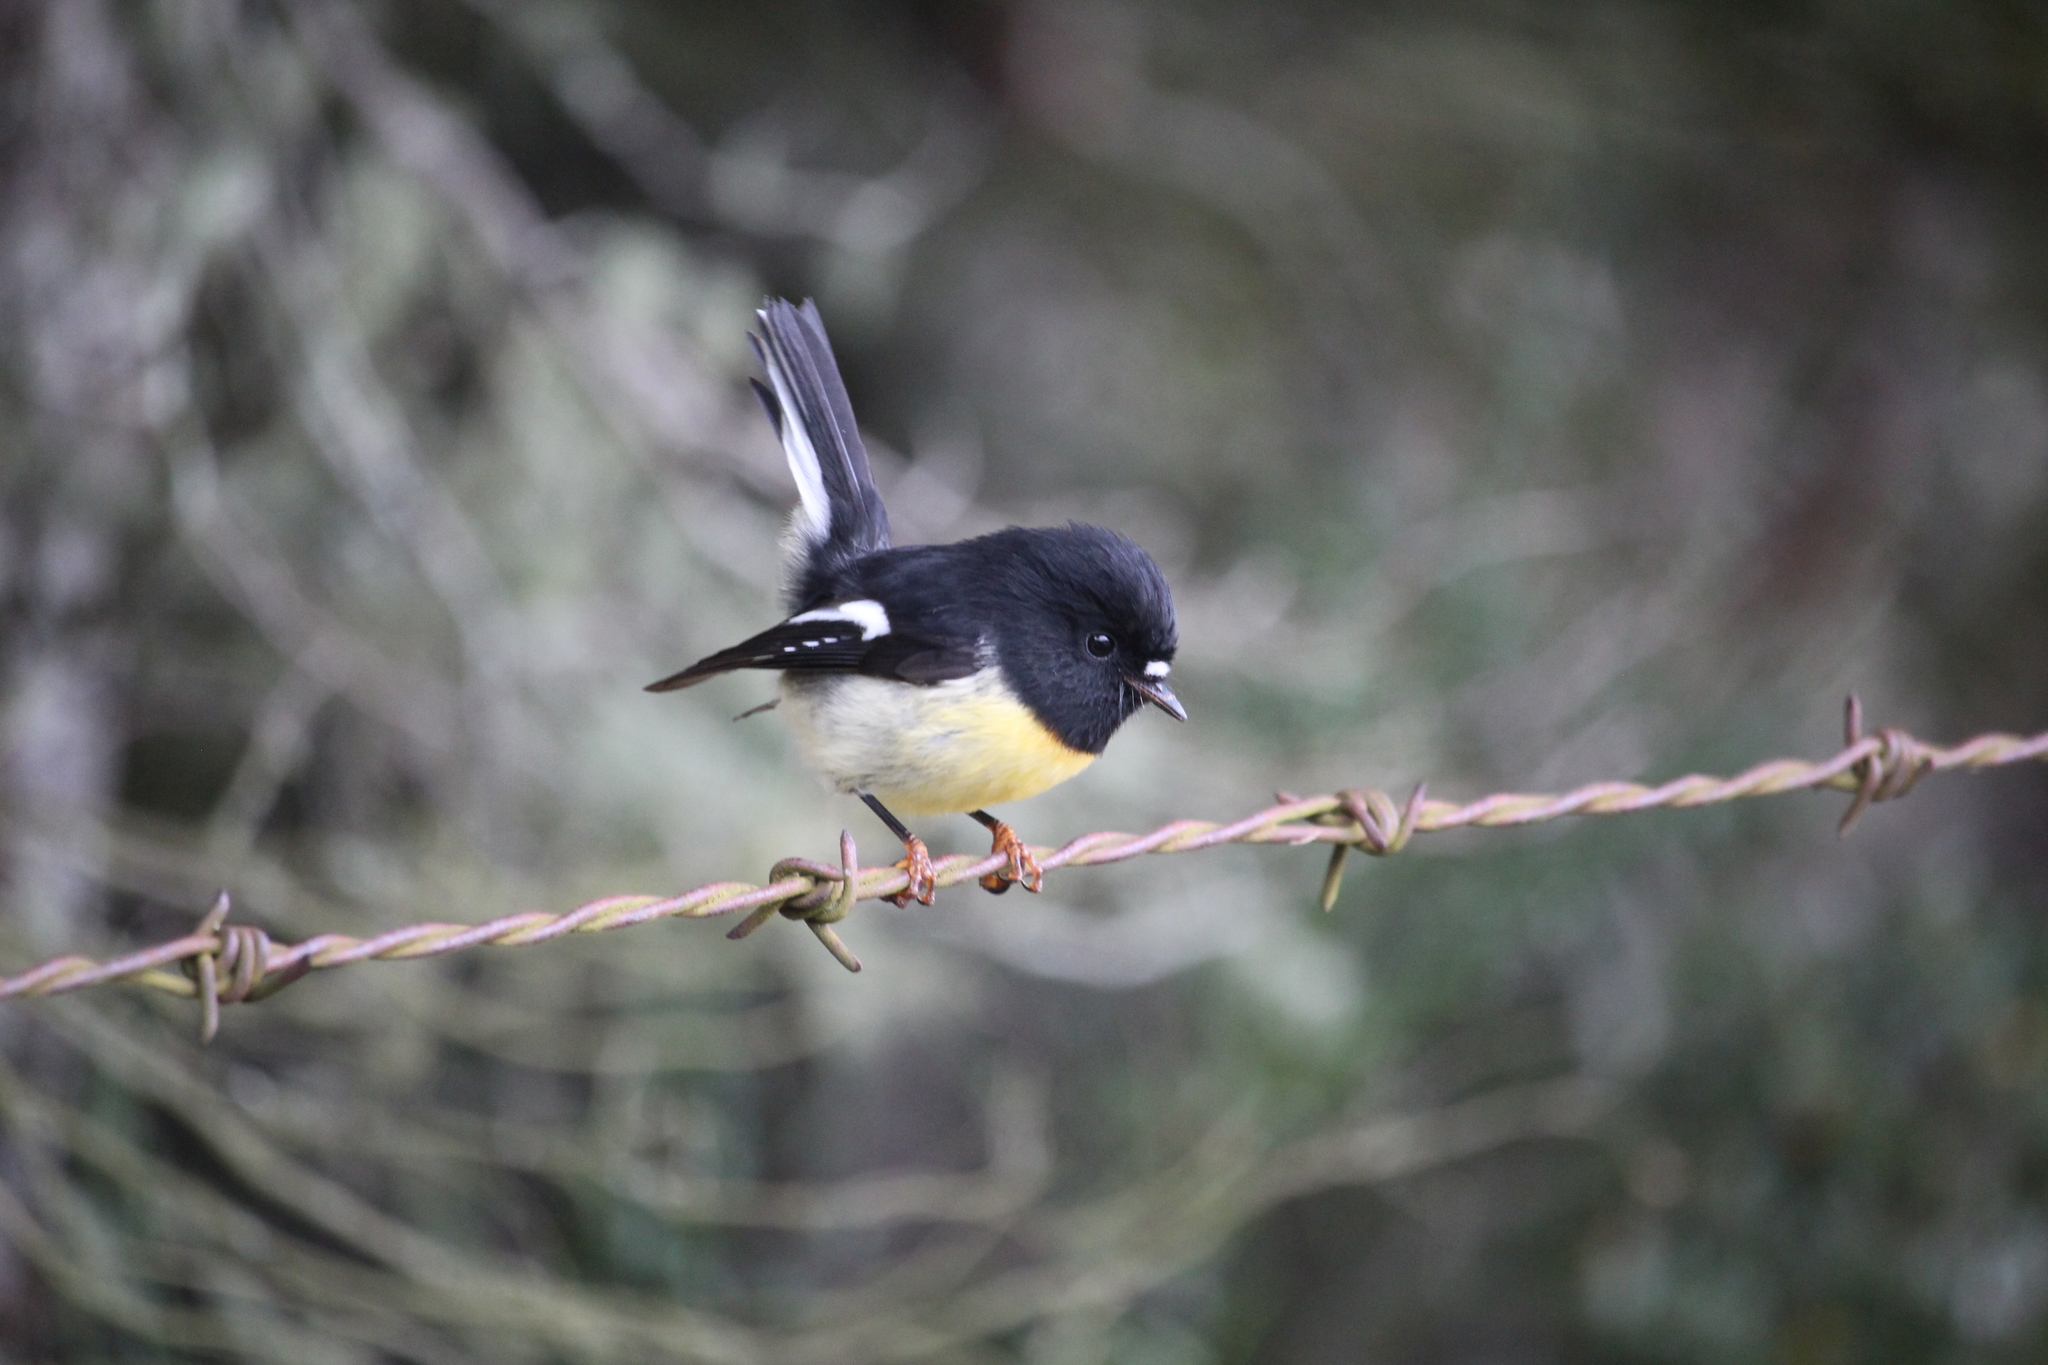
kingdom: Animalia
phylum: Chordata
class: Aves
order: Passeriformes
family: Petroicidae
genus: Petroica
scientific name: Petroica macrocephala
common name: Tomtit
